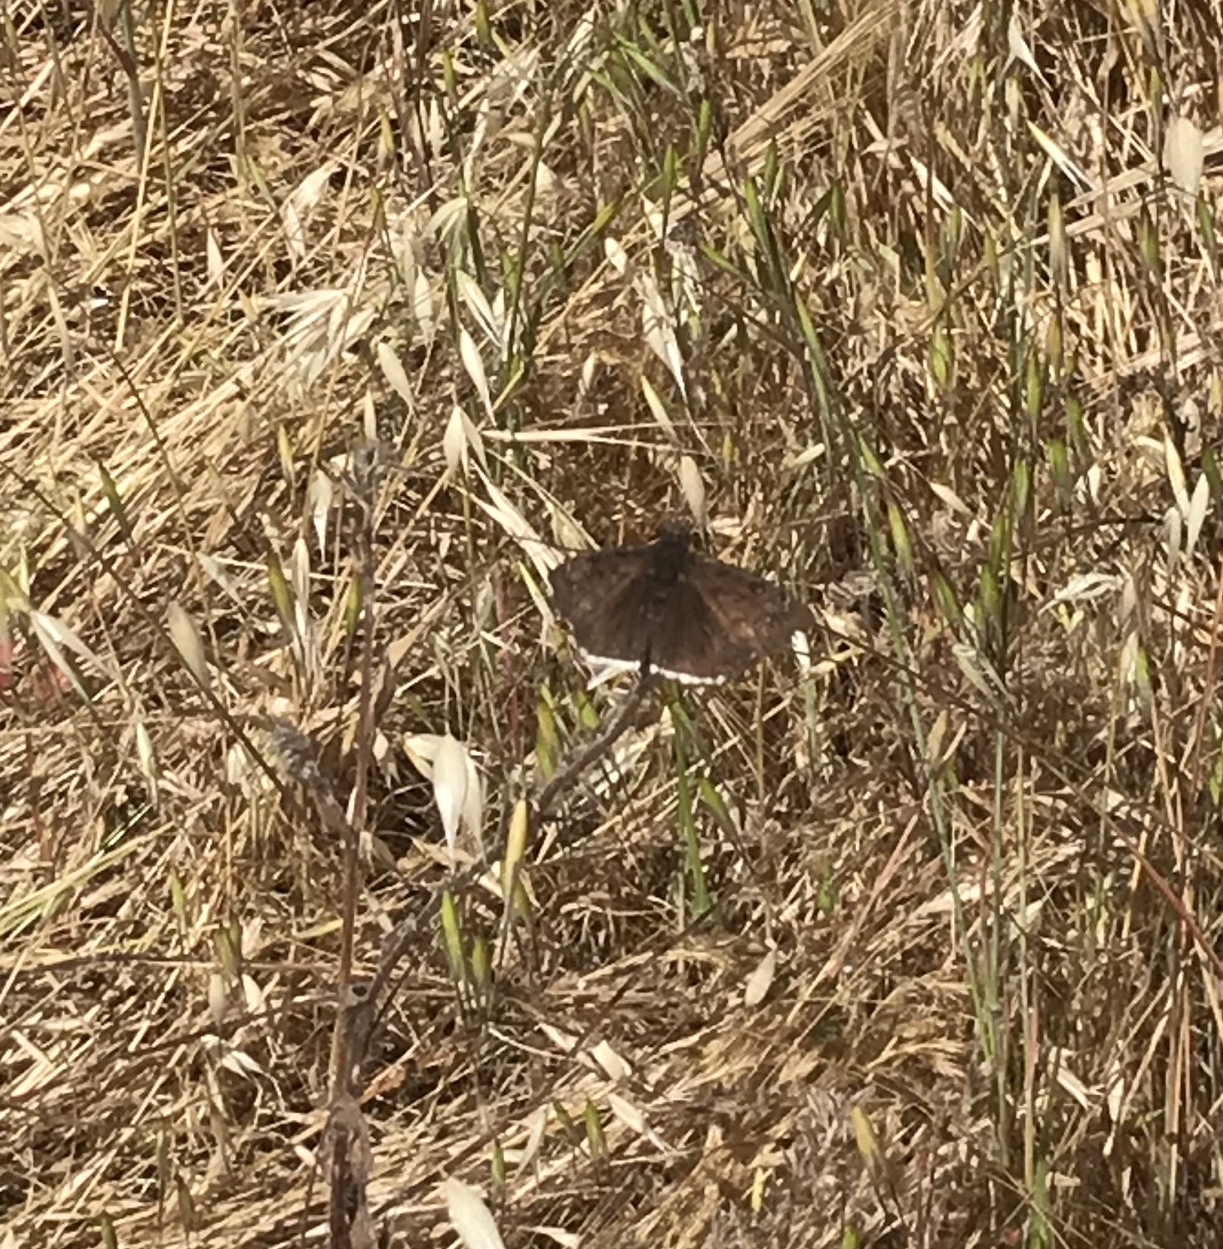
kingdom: Animalia
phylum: Arthropoda
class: Insecta
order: Lepidoptera
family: Hesperiidae
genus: Erynnis
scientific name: Erynnis tristis
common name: Mournful duskywing
